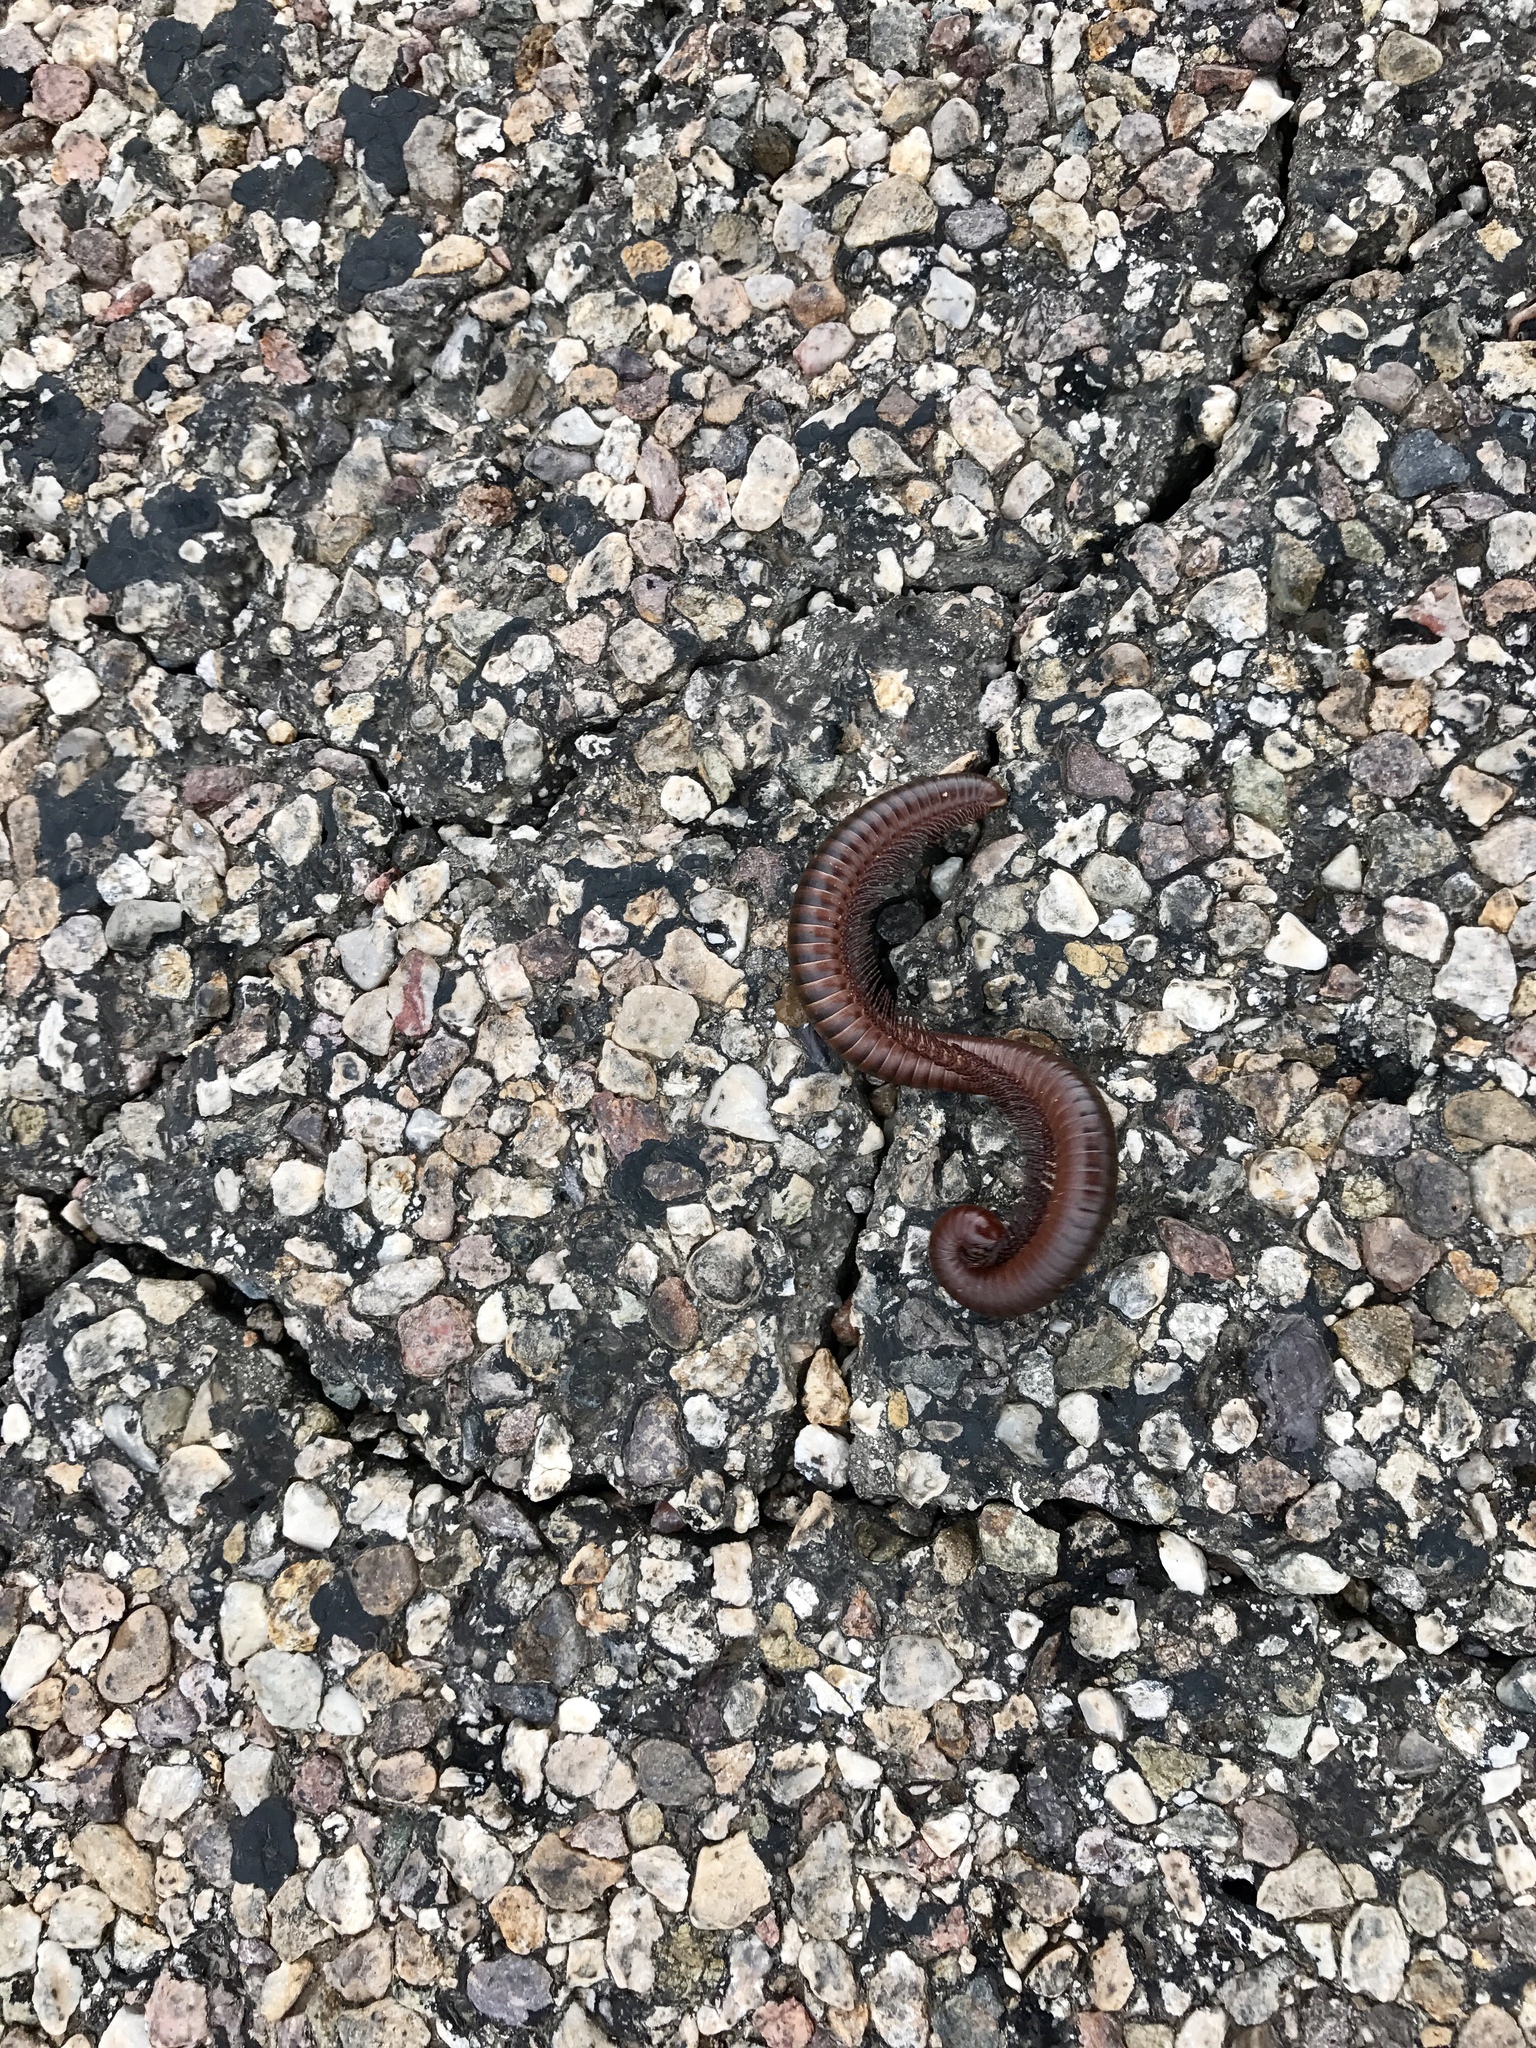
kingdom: Animalia
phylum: Arthropoda
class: Diplopoda
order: Spirostreptida
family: Spirostreptidae
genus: Orthoporus
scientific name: Orthoporus ornatus
